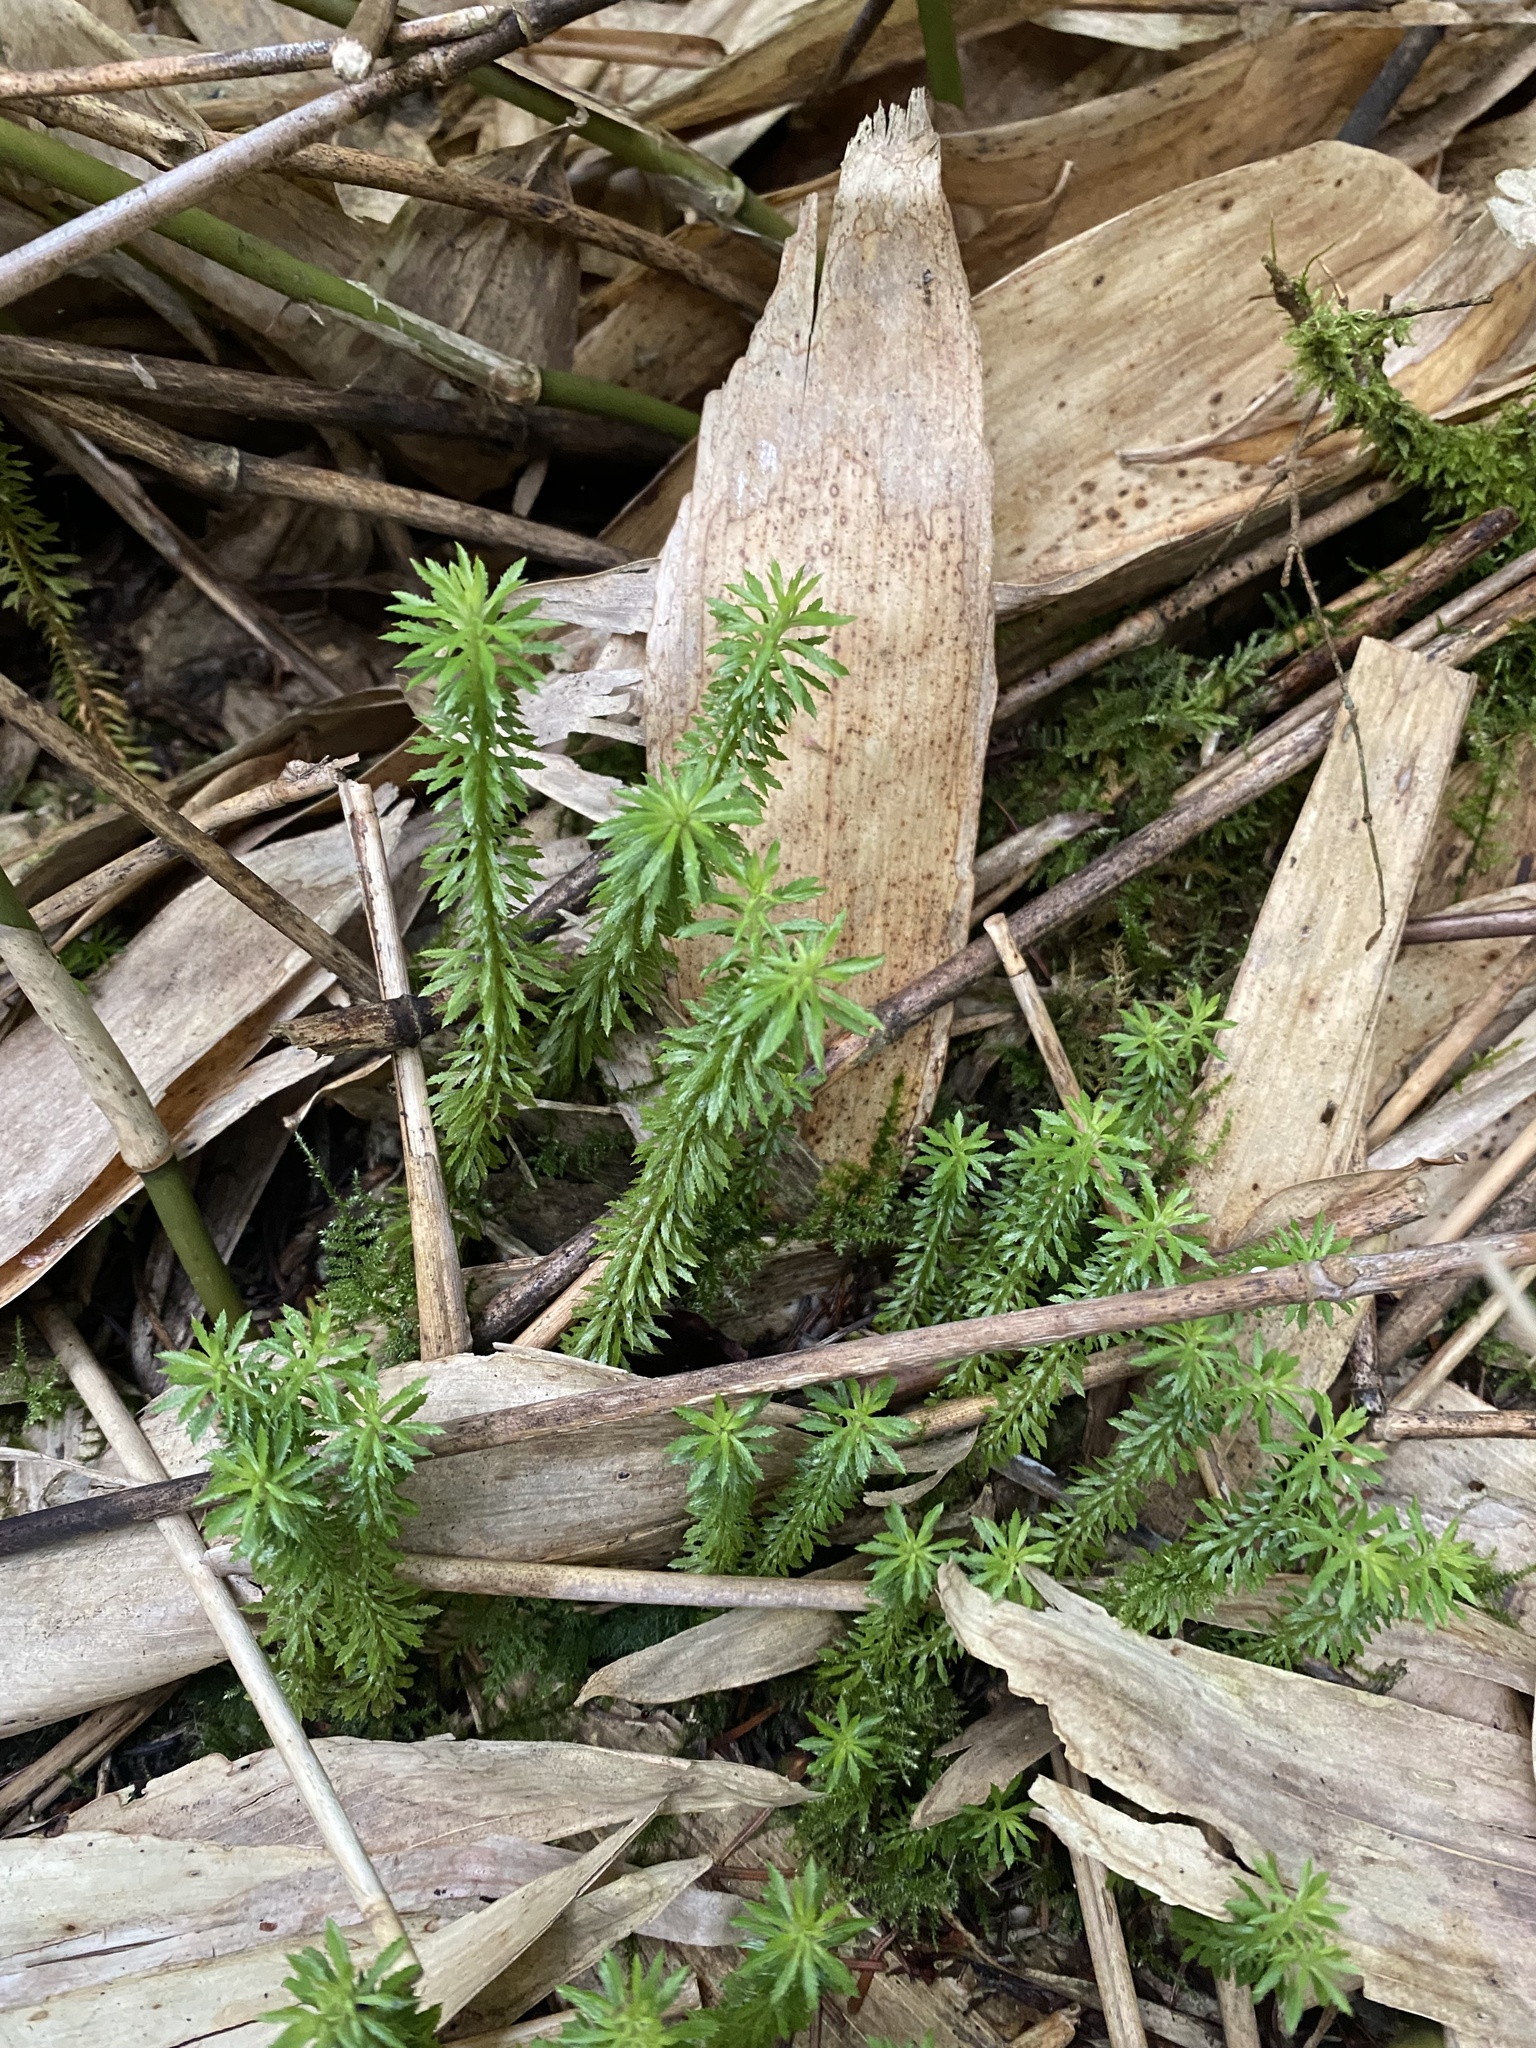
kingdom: Plantae
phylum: Tracheophyta
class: Lycopodiopsida
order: Lycopodiales
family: Lycopodiaceae
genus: Huperzia
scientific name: Huperzia serrata
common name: Toothed club-moss
